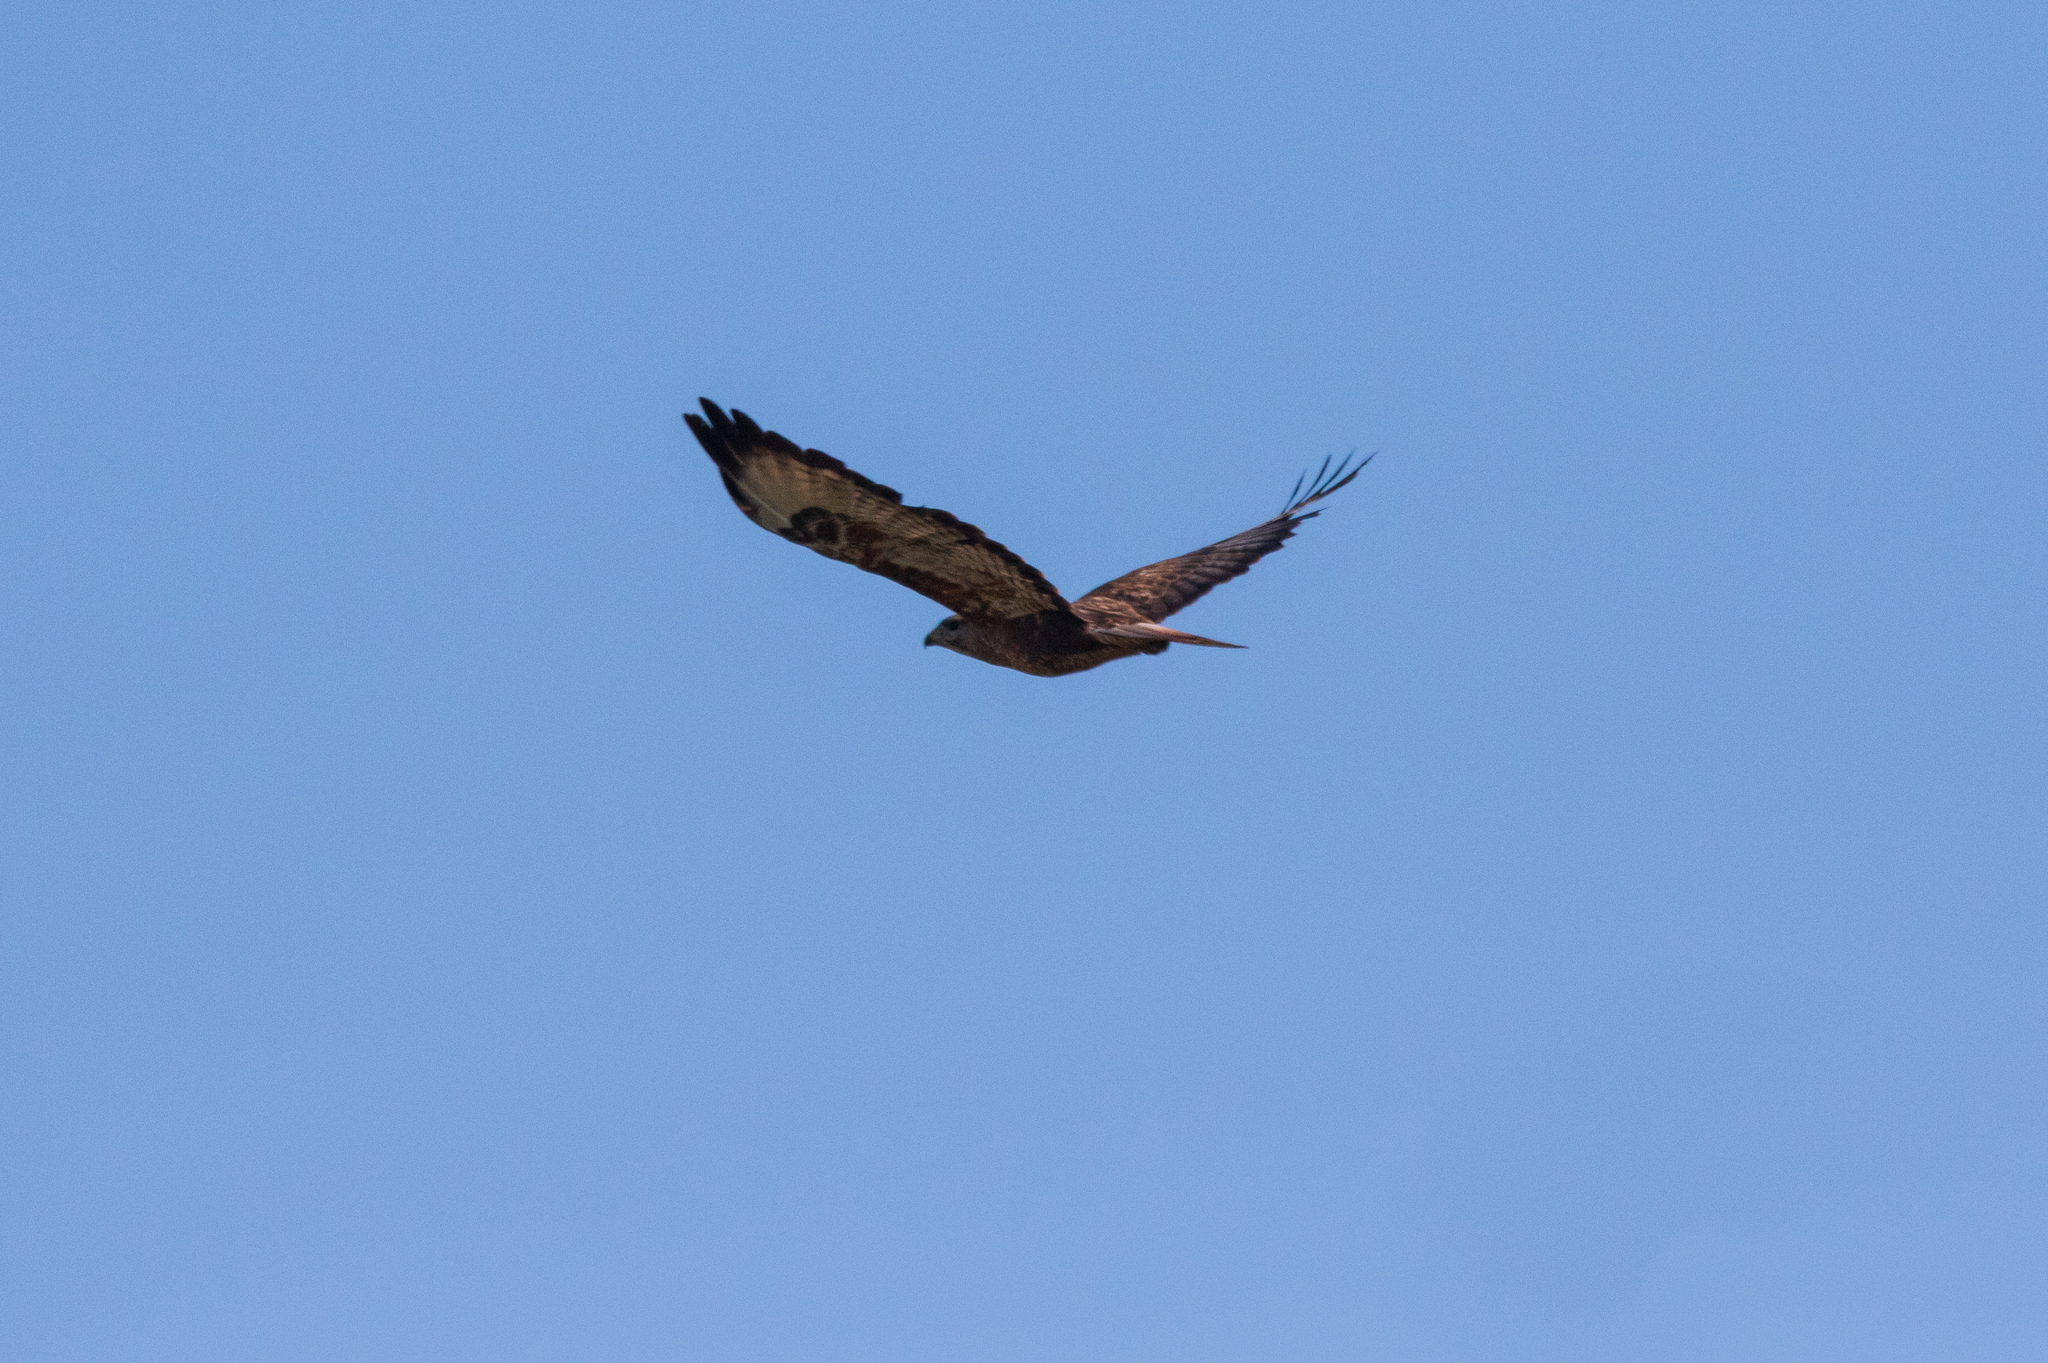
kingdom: Animalia
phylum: Chordata
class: Aves
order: Accipitriformes
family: Accipitridae
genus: Buteo
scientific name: Buteo buteo
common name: Common buzzard
